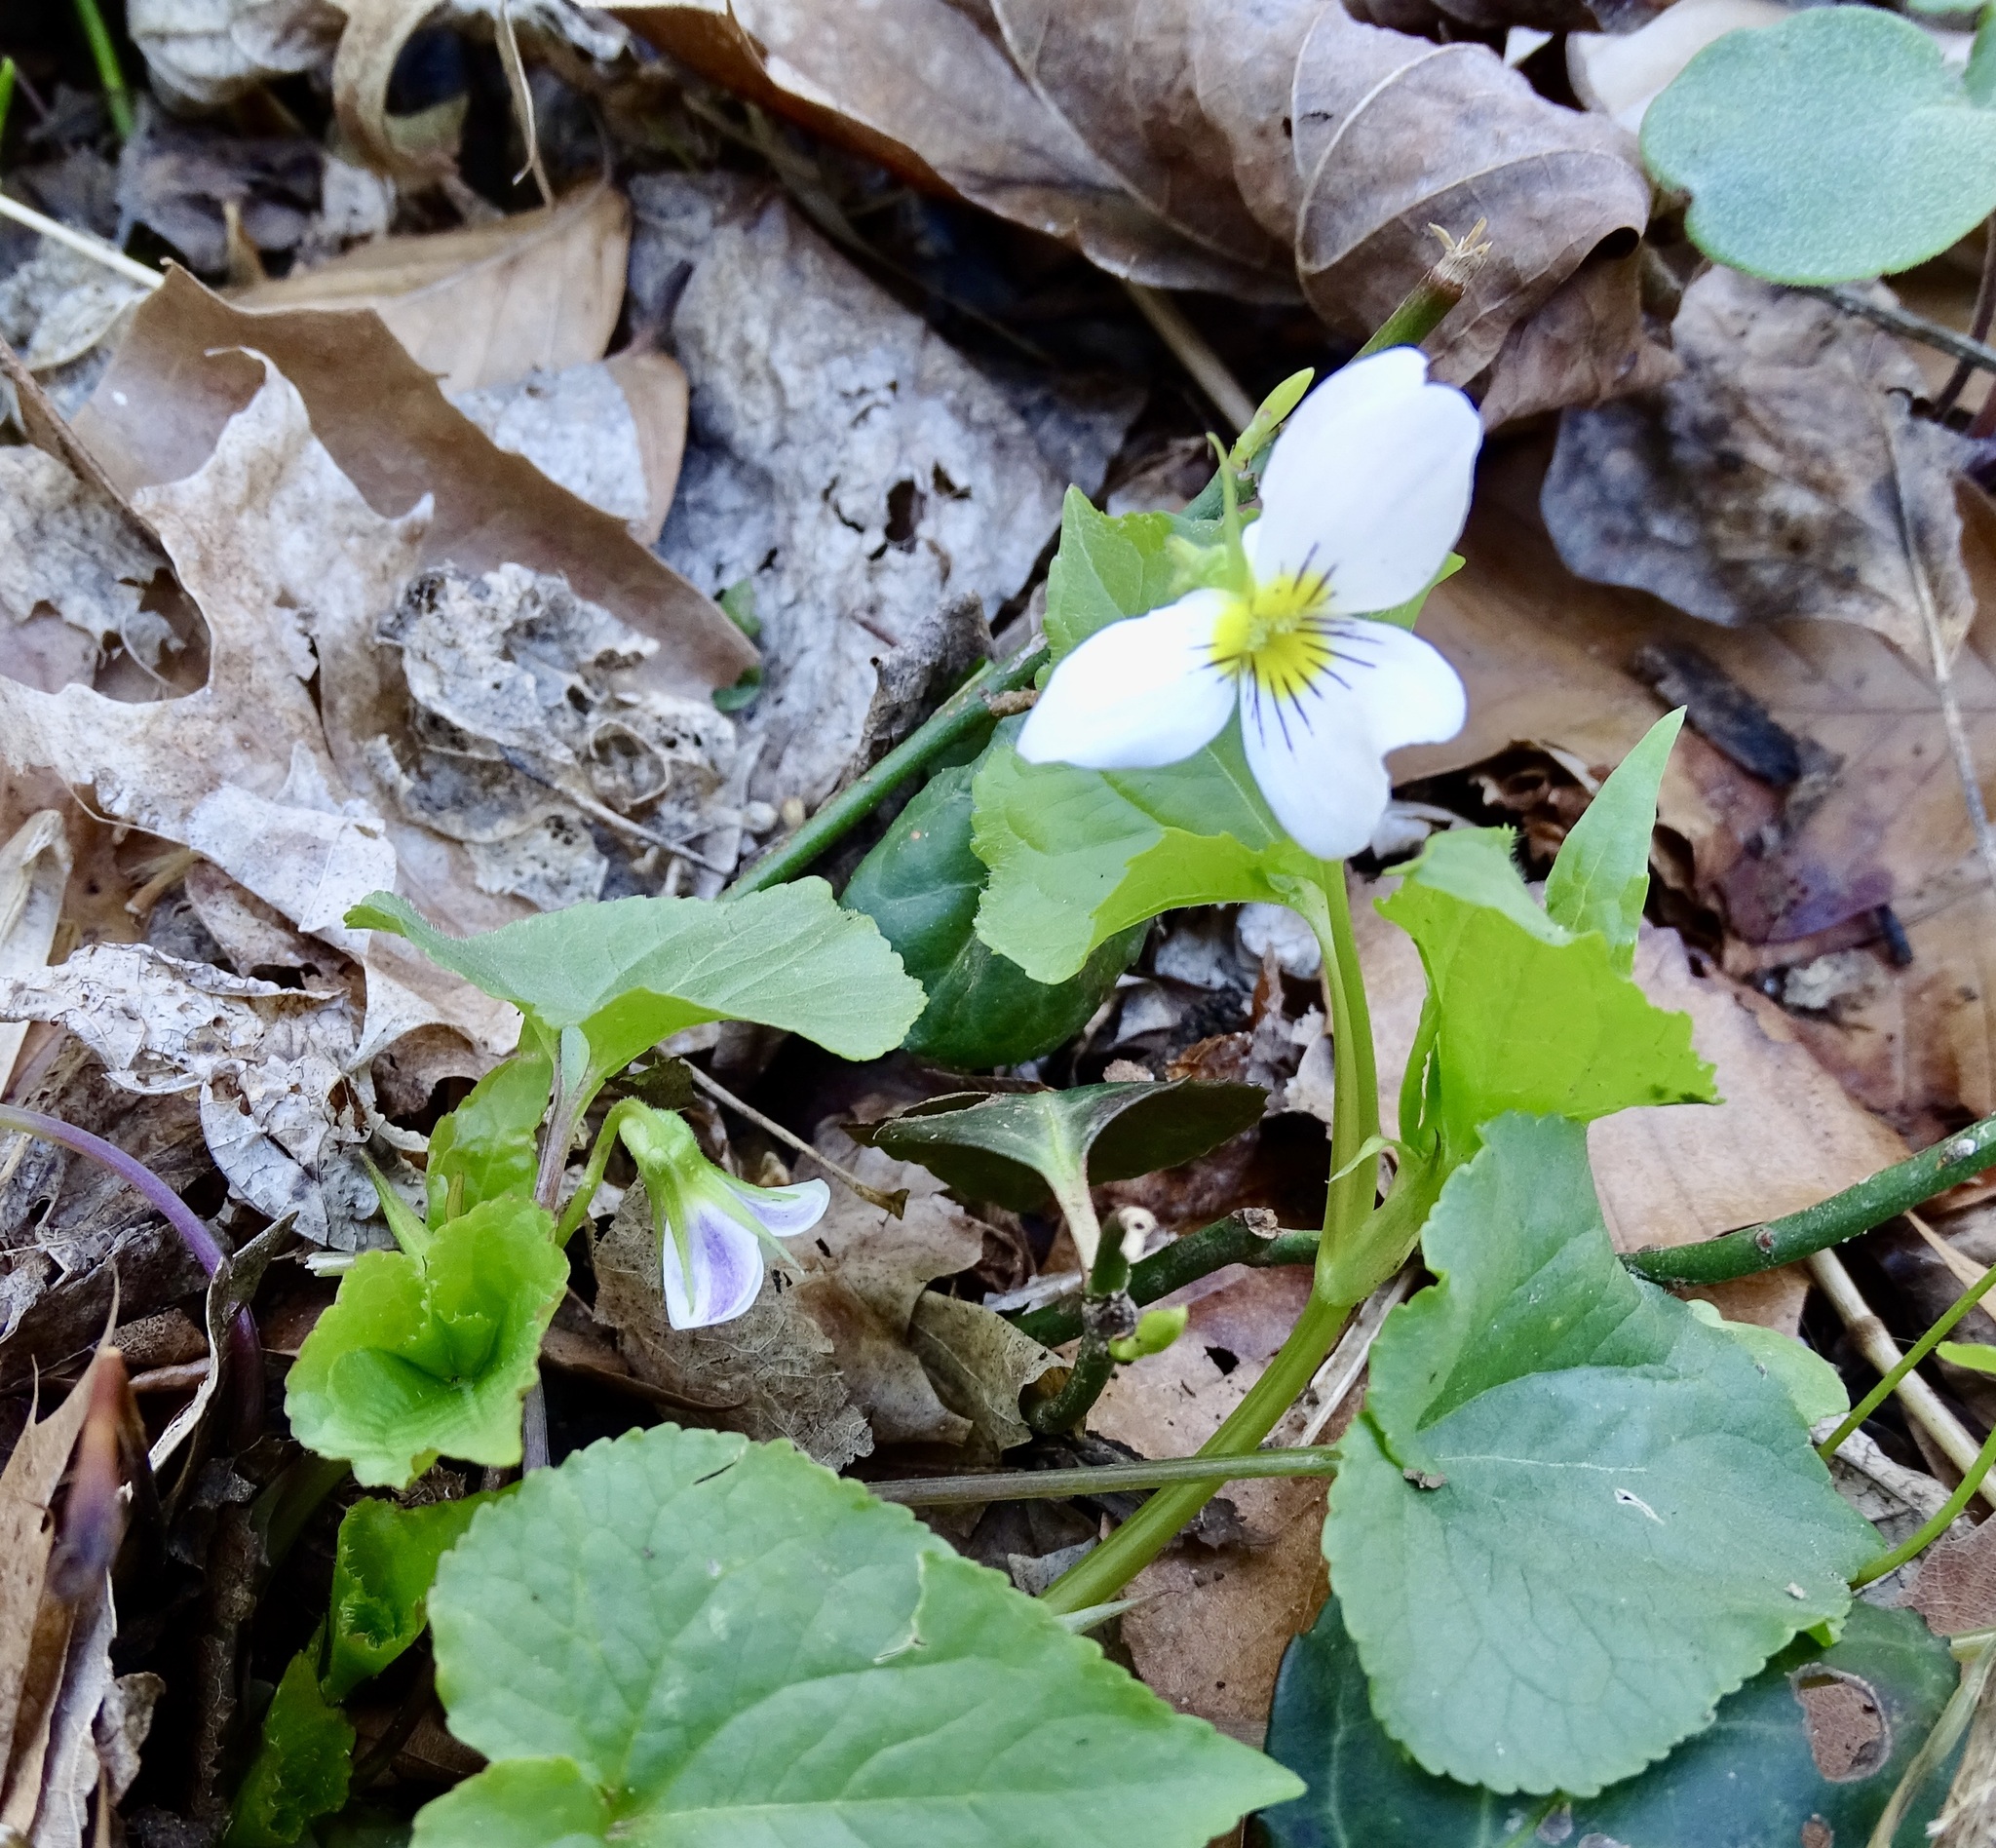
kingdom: Plantae
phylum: Tracheophyta
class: Magnoliopsida
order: Malpighiales
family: Violaceae
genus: Viola
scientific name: Viola canadensis
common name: Canada violet
